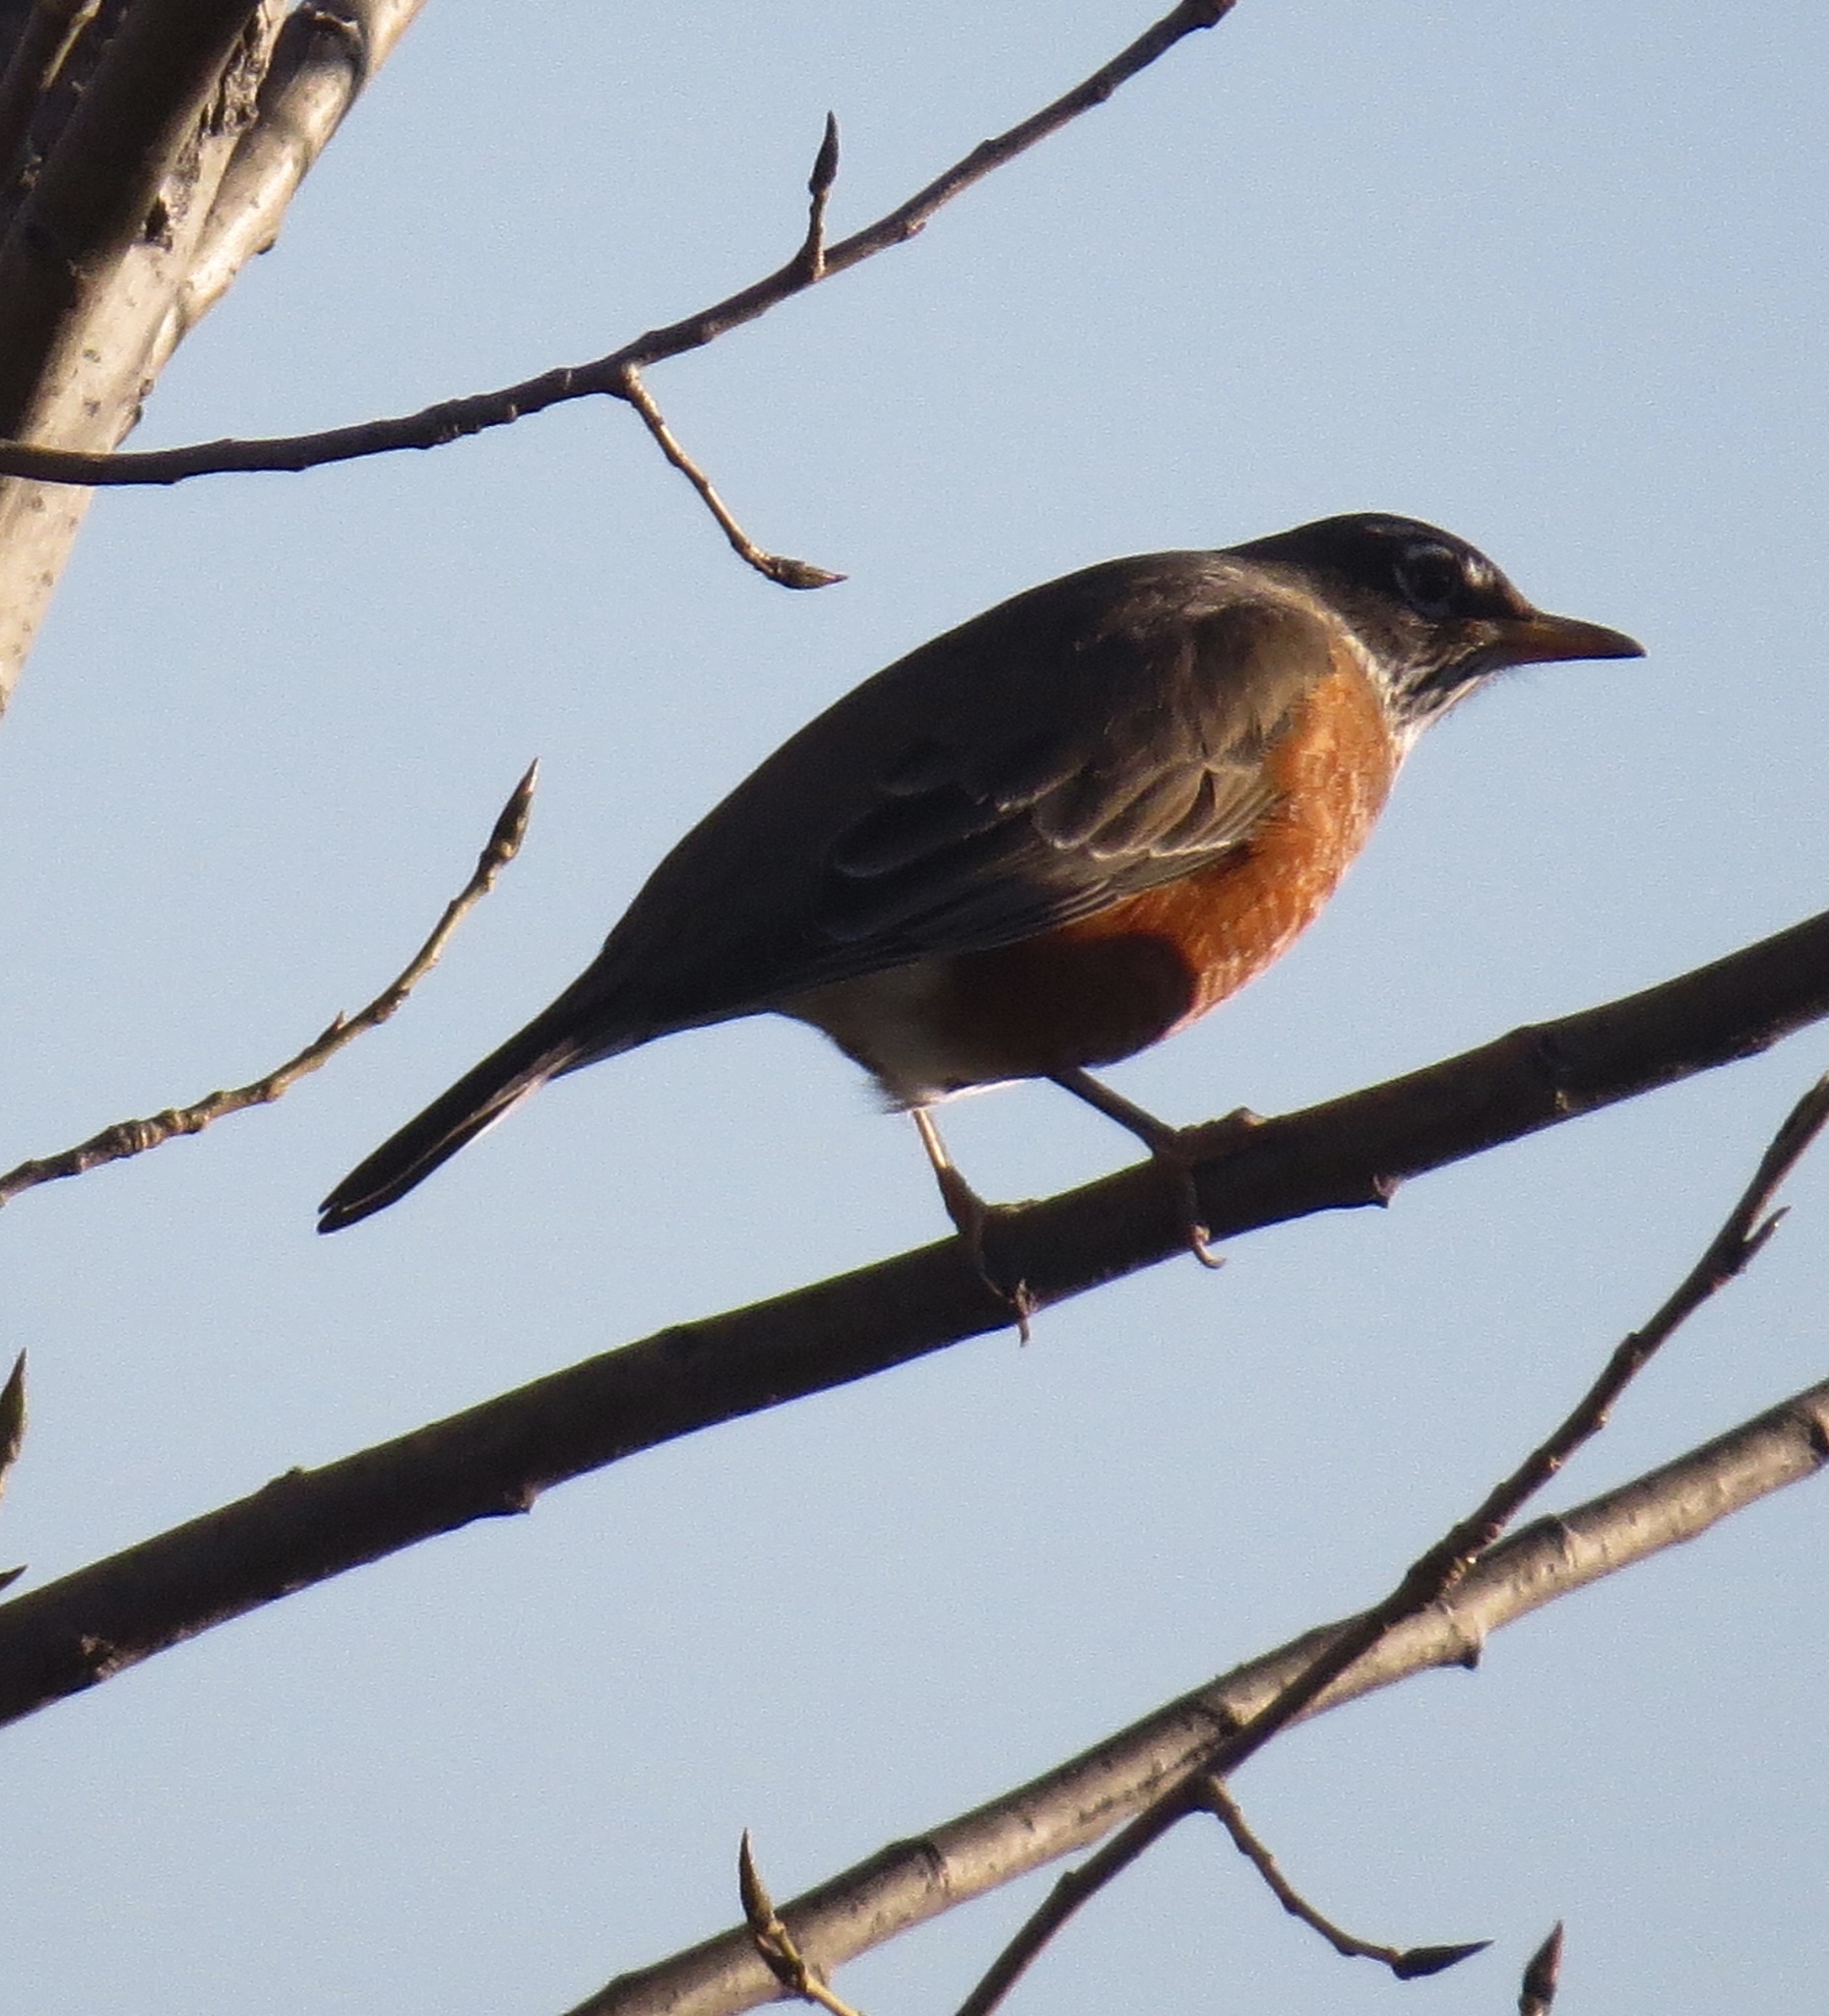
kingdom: Animalia
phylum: Chordata
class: Aves
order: Passeriformes
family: Turdidae
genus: Turdus
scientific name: Turdus migratorius
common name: American robin
